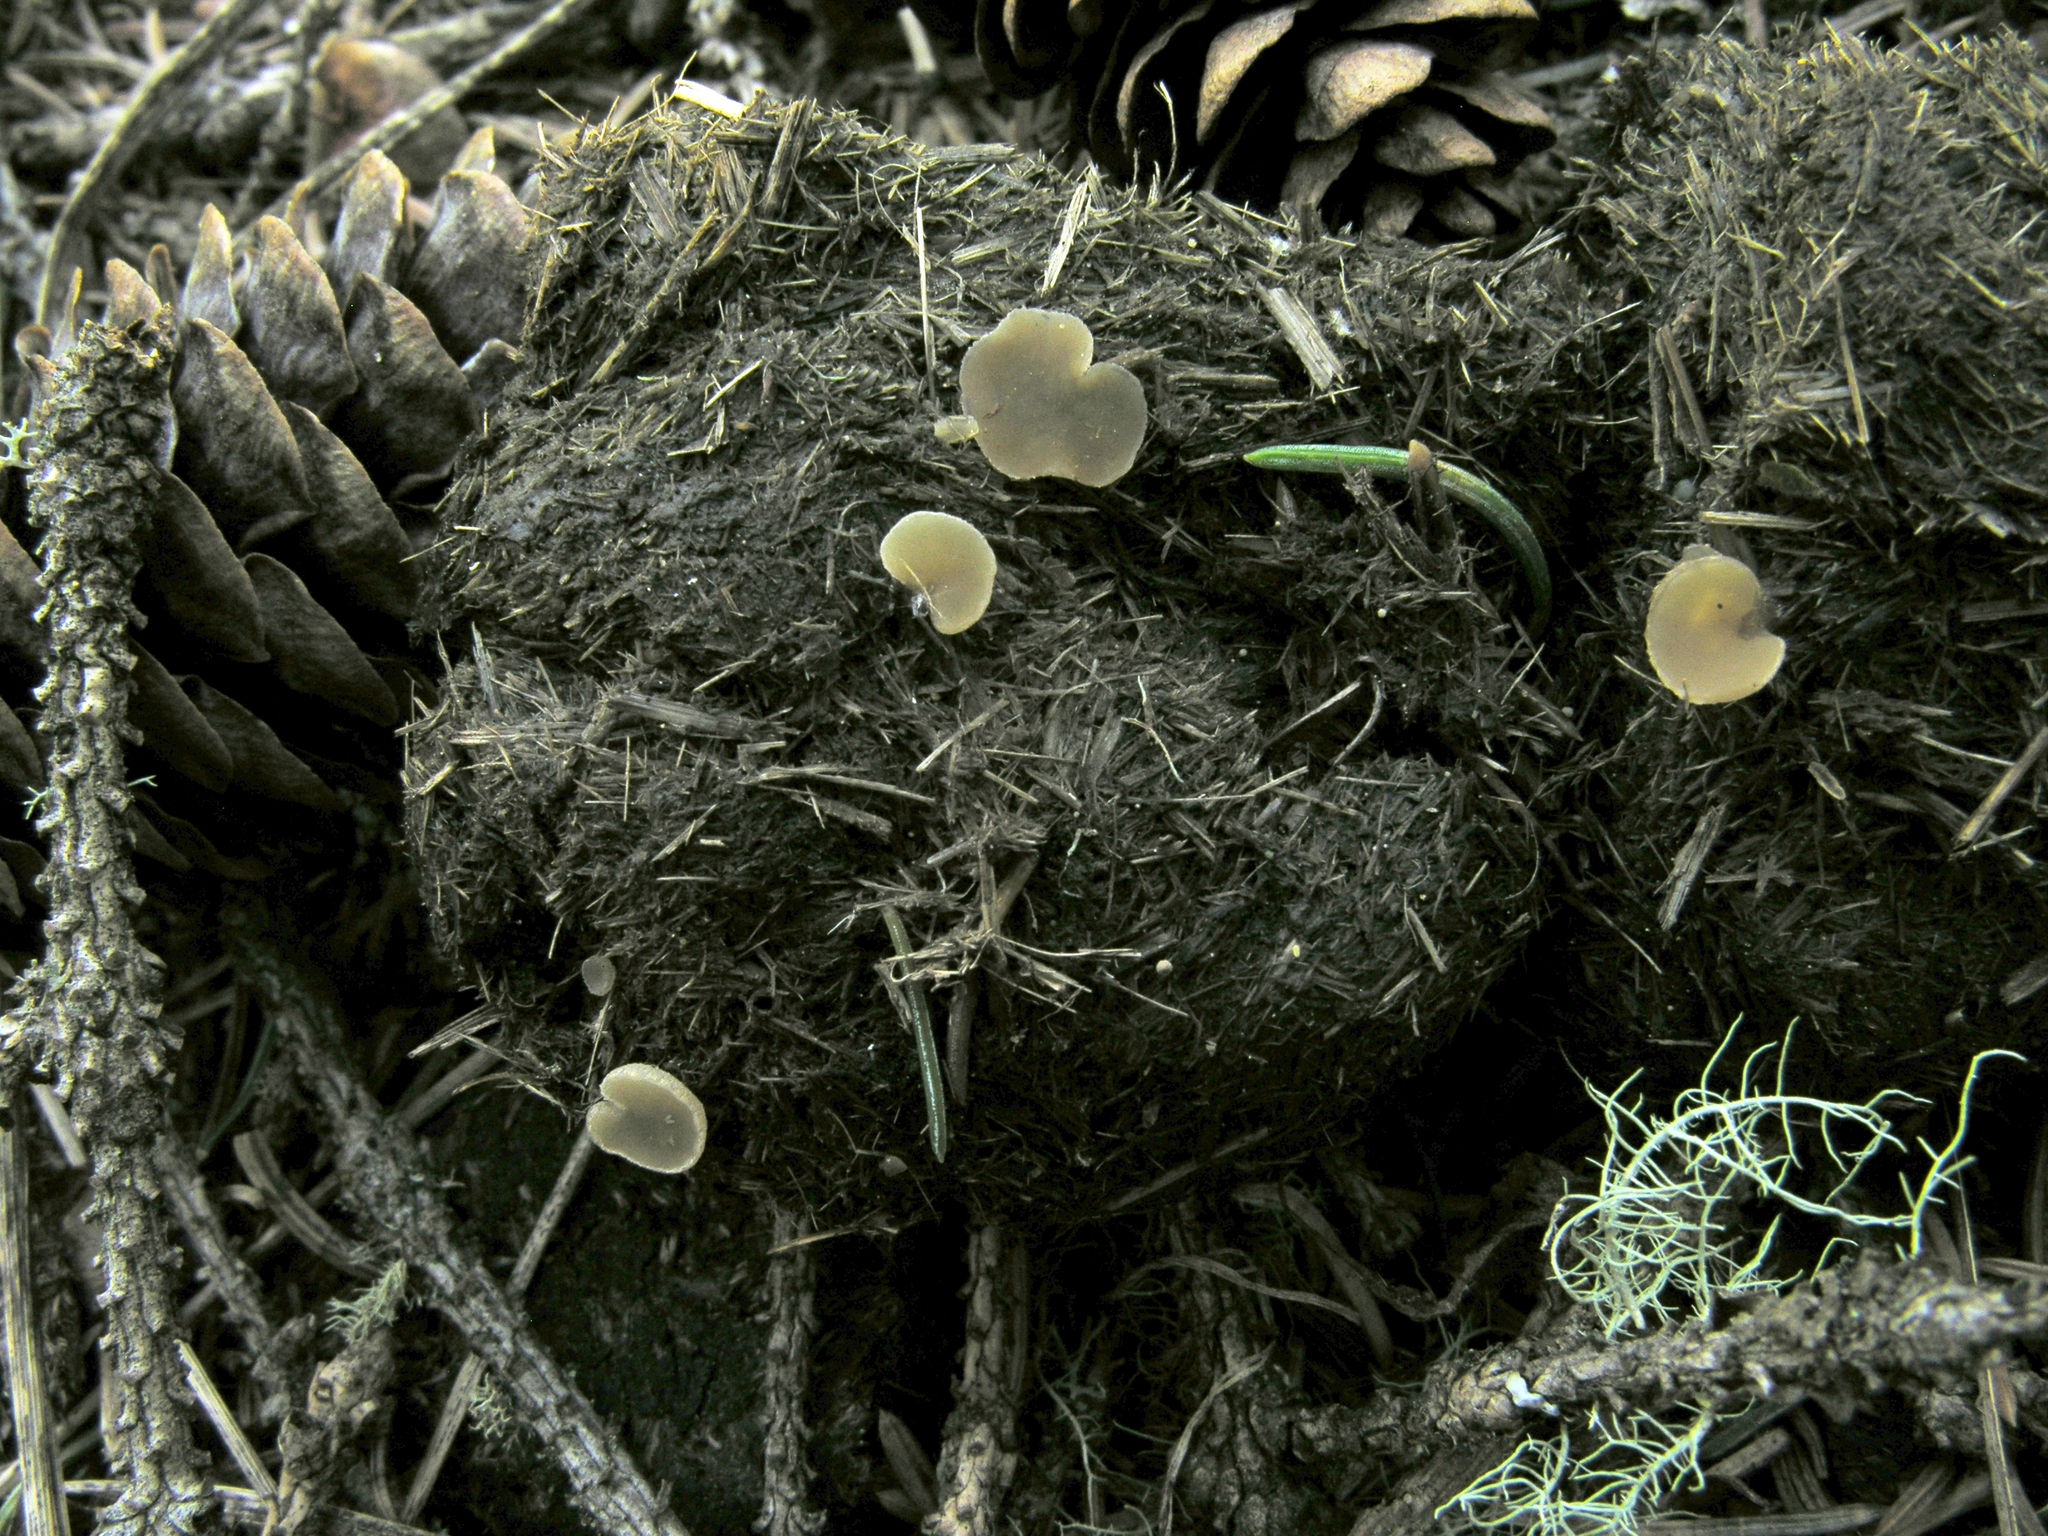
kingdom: Fungi
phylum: Ascomycota
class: Pezizomycetes
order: Pezizales
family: Pezizaceae
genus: Peziza
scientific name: Peziza fimeti
